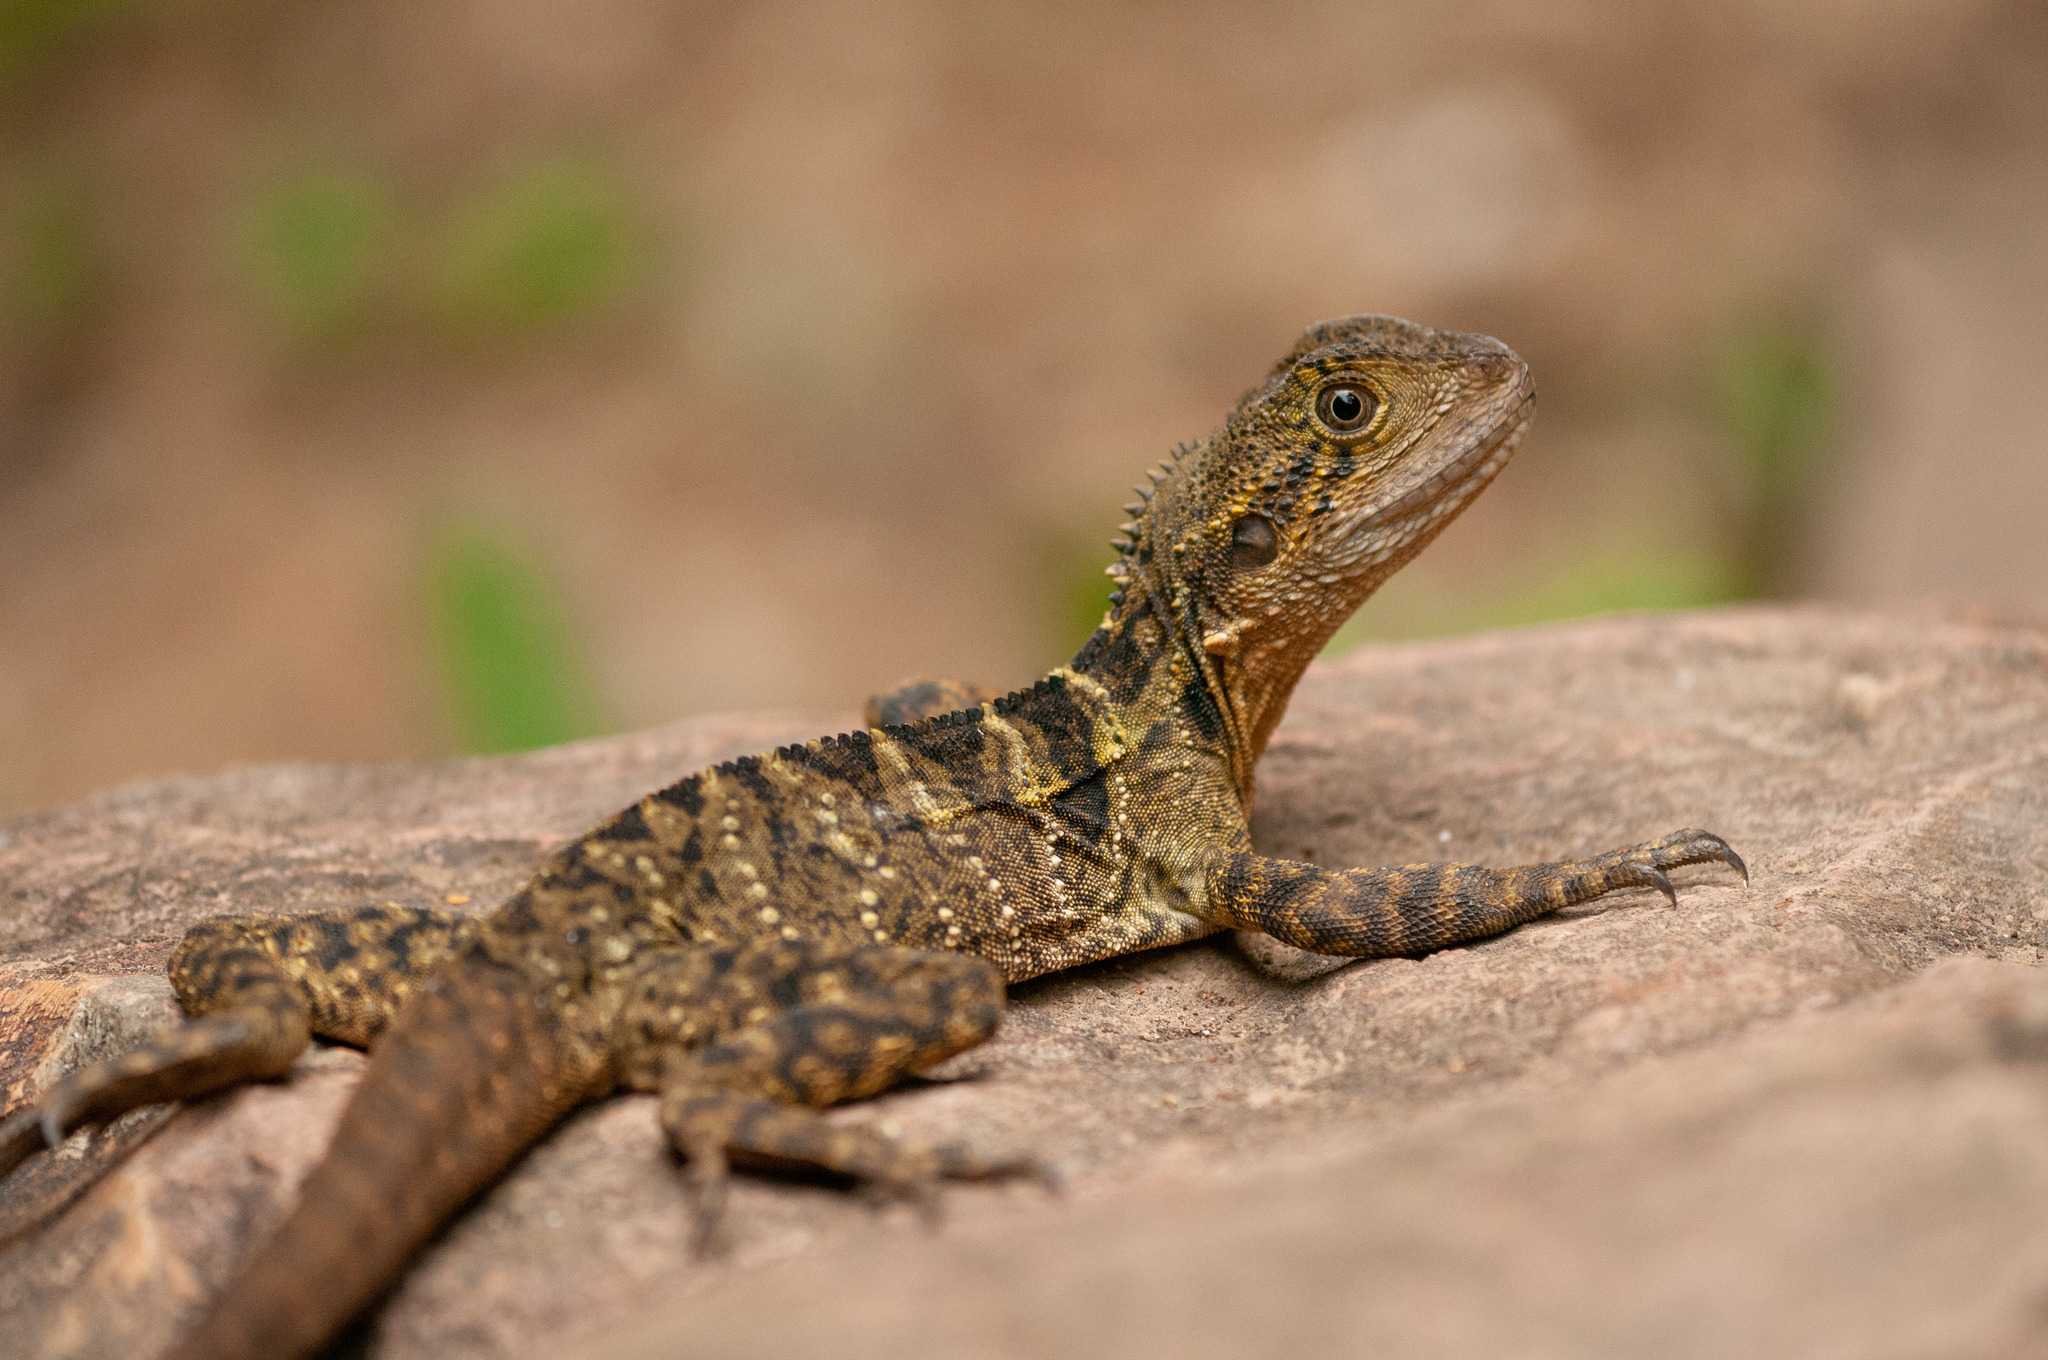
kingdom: Animalia
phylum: Chordata
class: Squamata
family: Agamidae
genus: Intellagama
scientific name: Intellagama lesueurii
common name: Eastern water dragon
